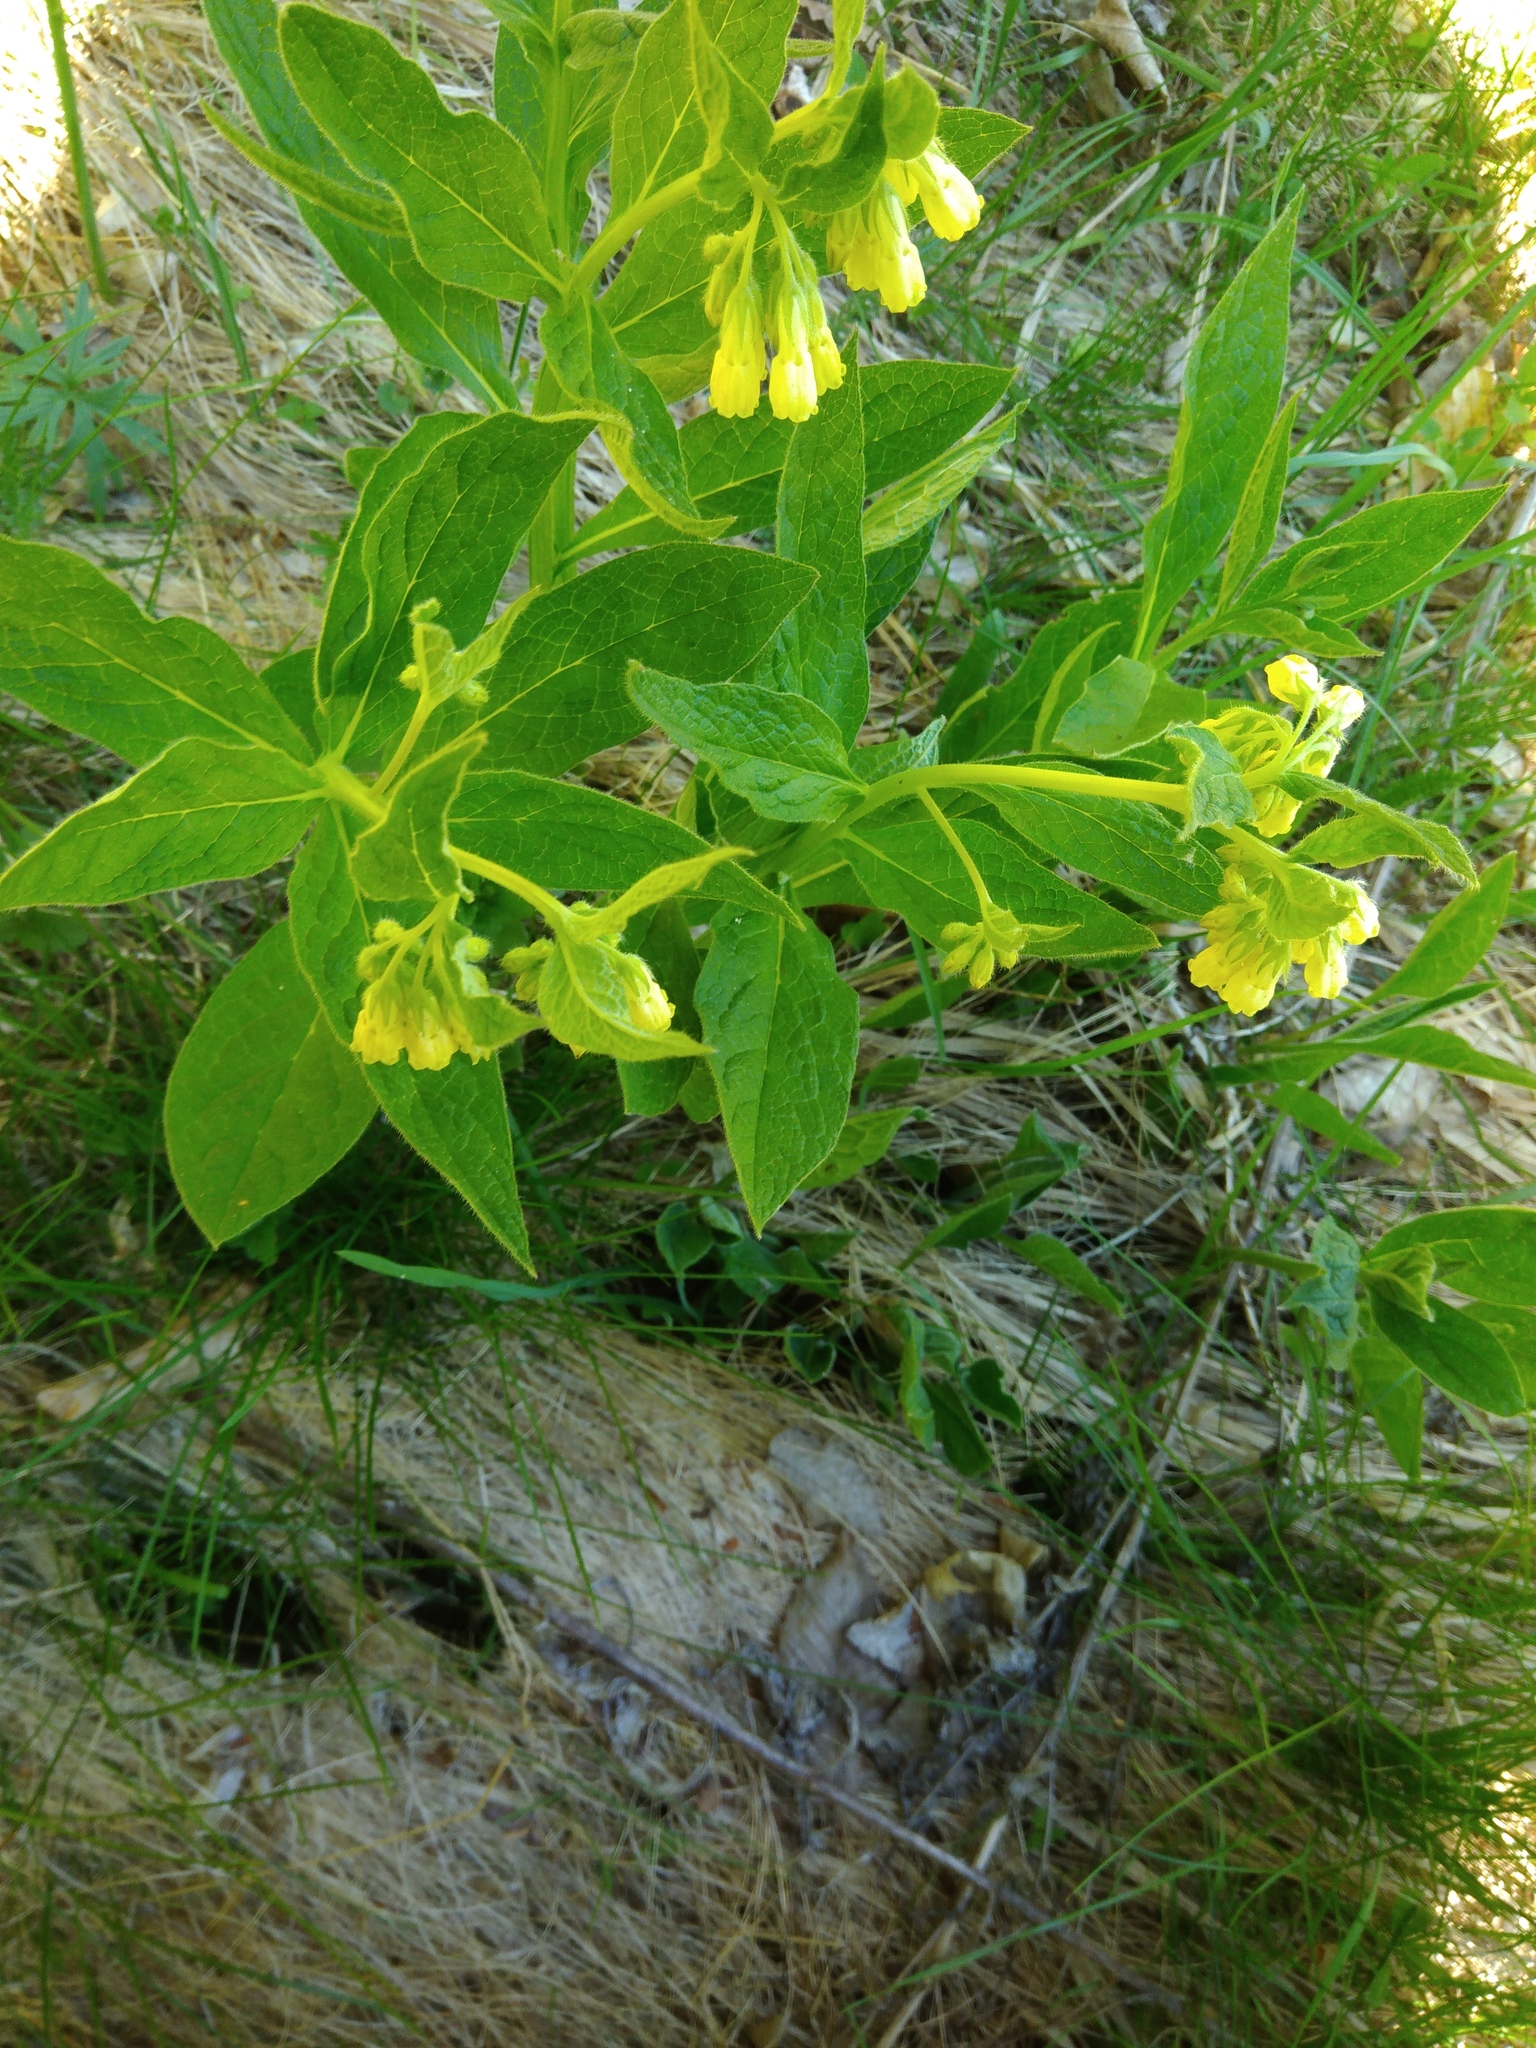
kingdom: Plantae
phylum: Tracheophyta
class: Magnoliopsida
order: Boraginales
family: Boraginaceae
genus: Symphytum
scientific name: Symphytum officinale
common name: Common comfrey
